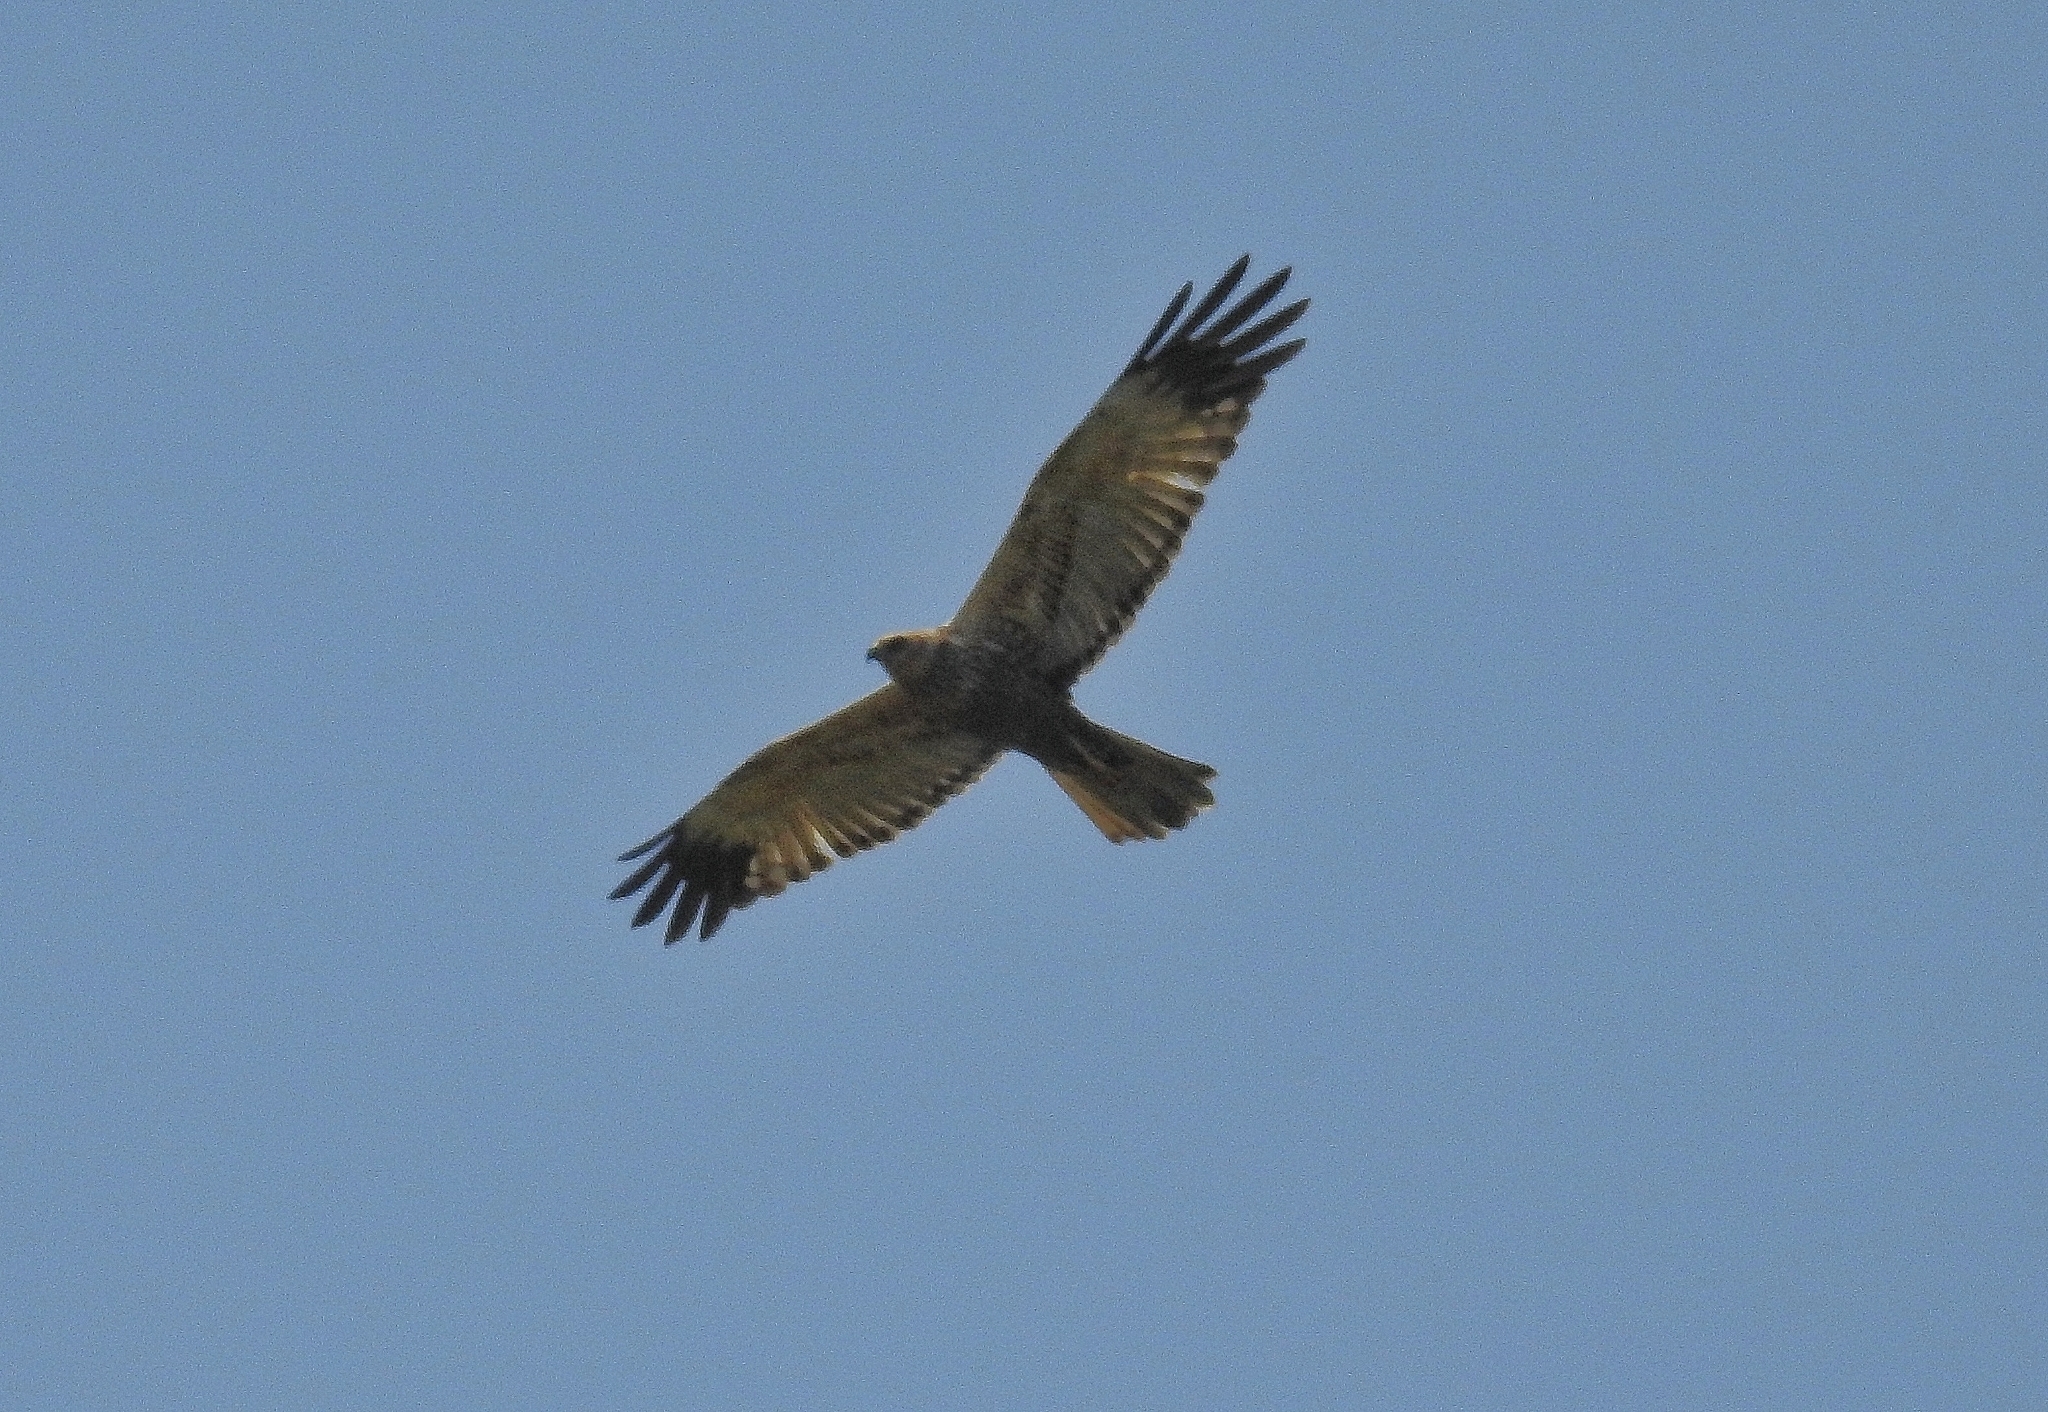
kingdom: Animalia
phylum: Chordata
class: Aves
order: Accipitriformes
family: Accipitridae
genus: Circus
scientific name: Circus aeruginosus
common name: Western marsh harrier
